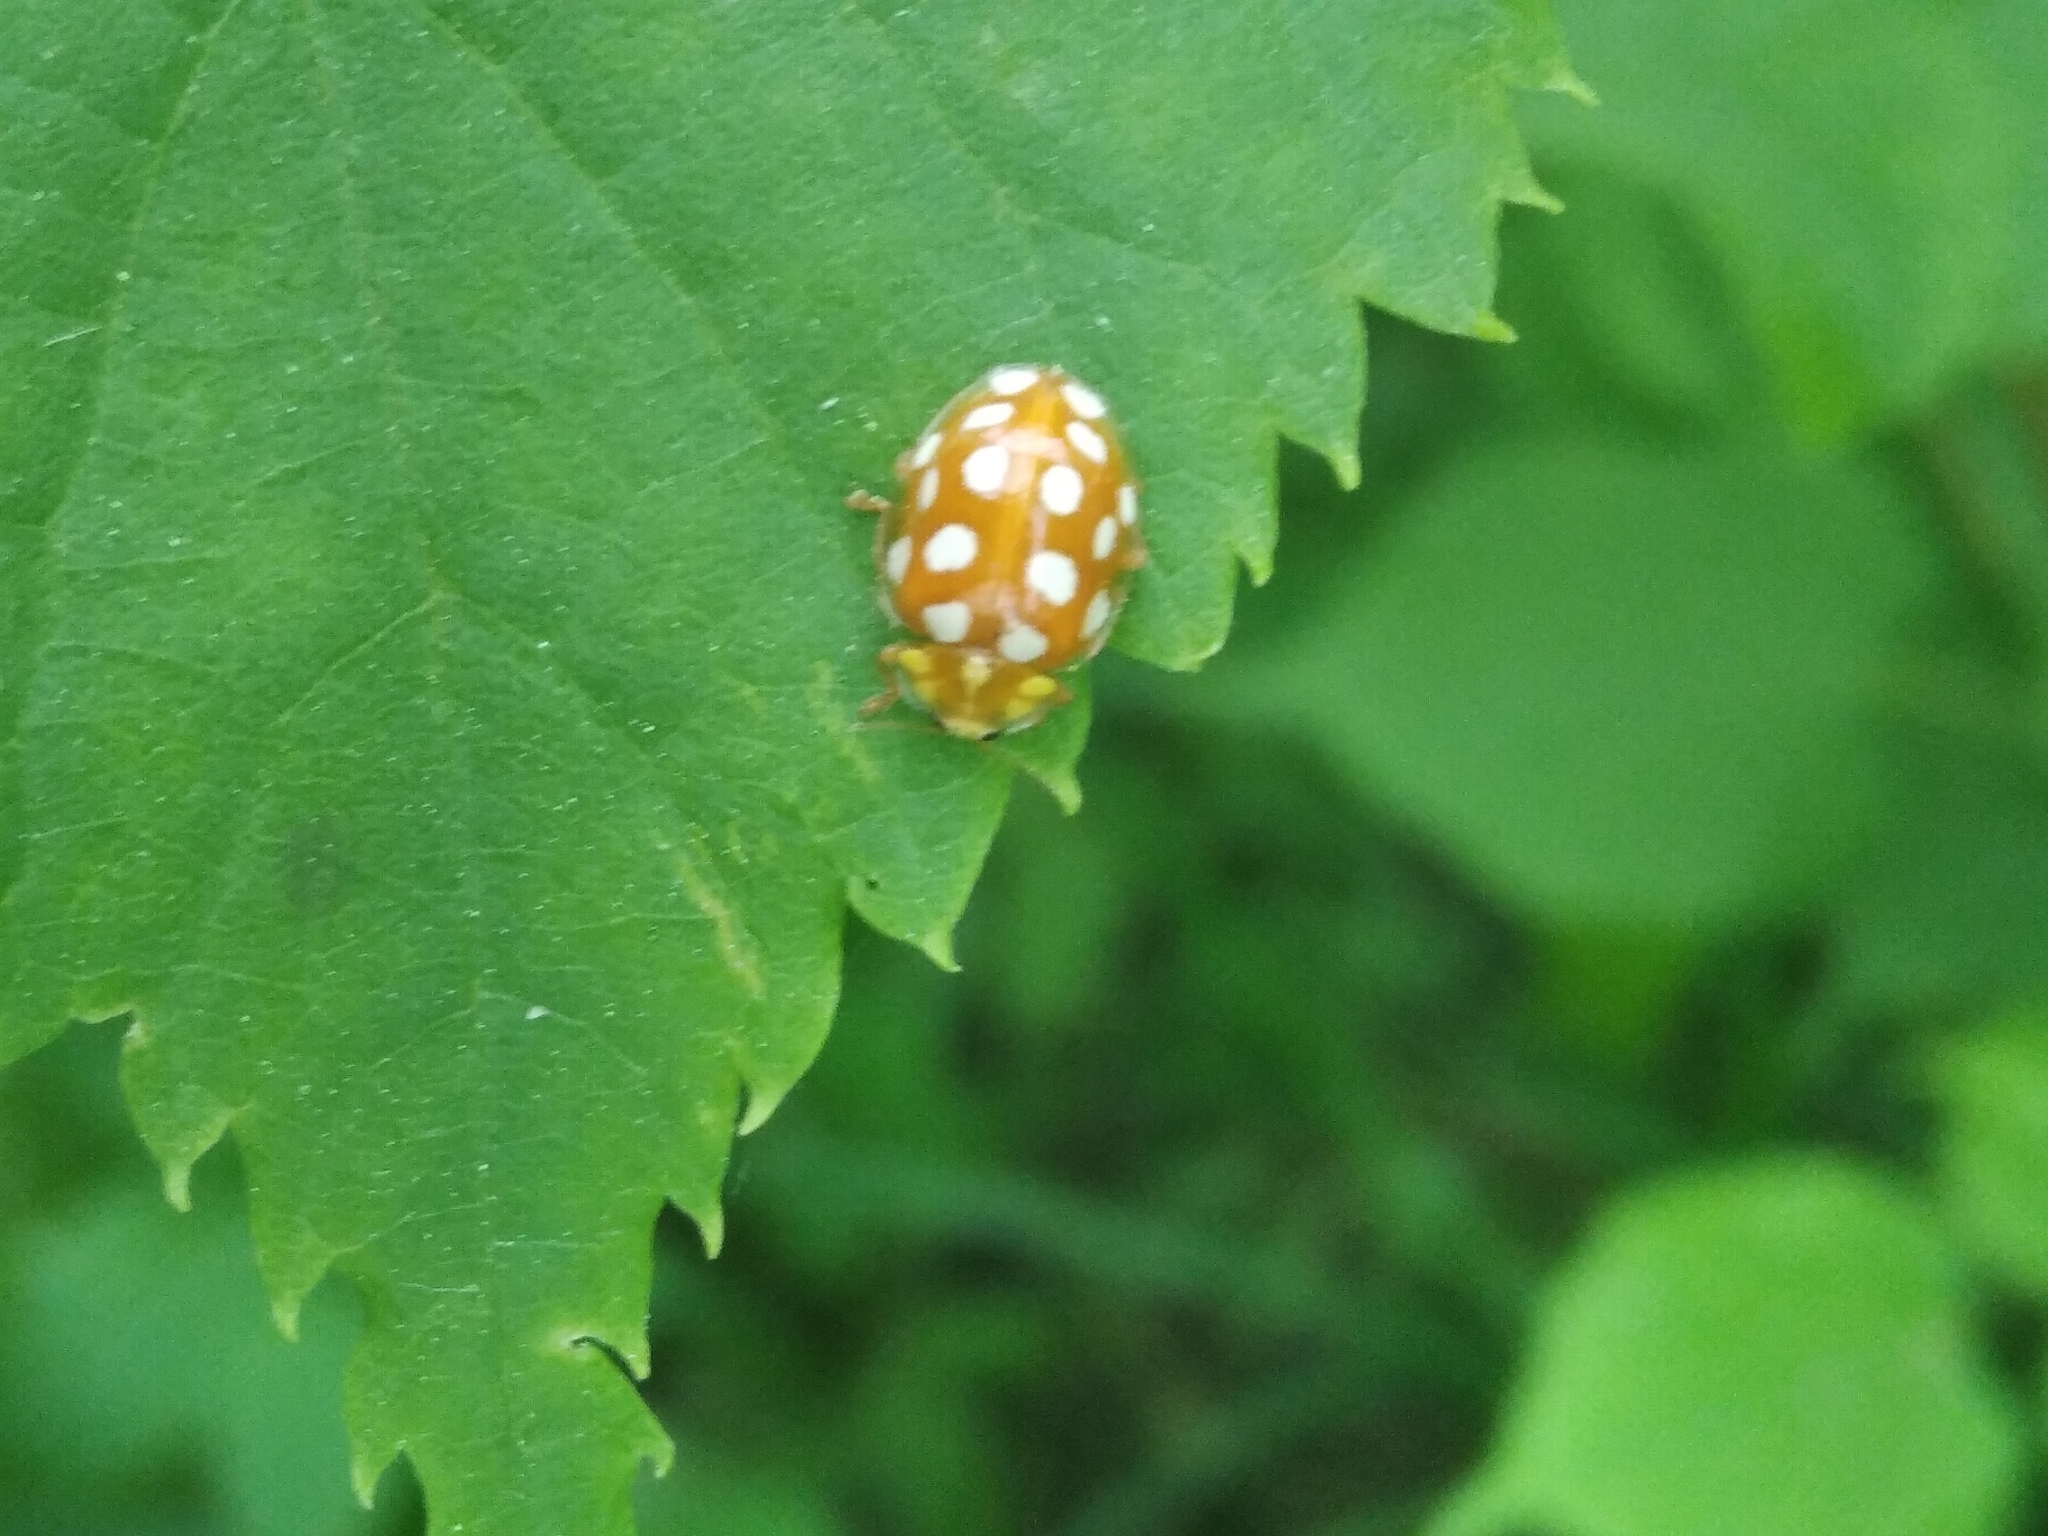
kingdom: Animalia
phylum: Arthropoda
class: Insecta
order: Coleoptera
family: Coccinellidae
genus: Halyzia
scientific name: Halyzia sedecimguttata
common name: Orange ladybird
